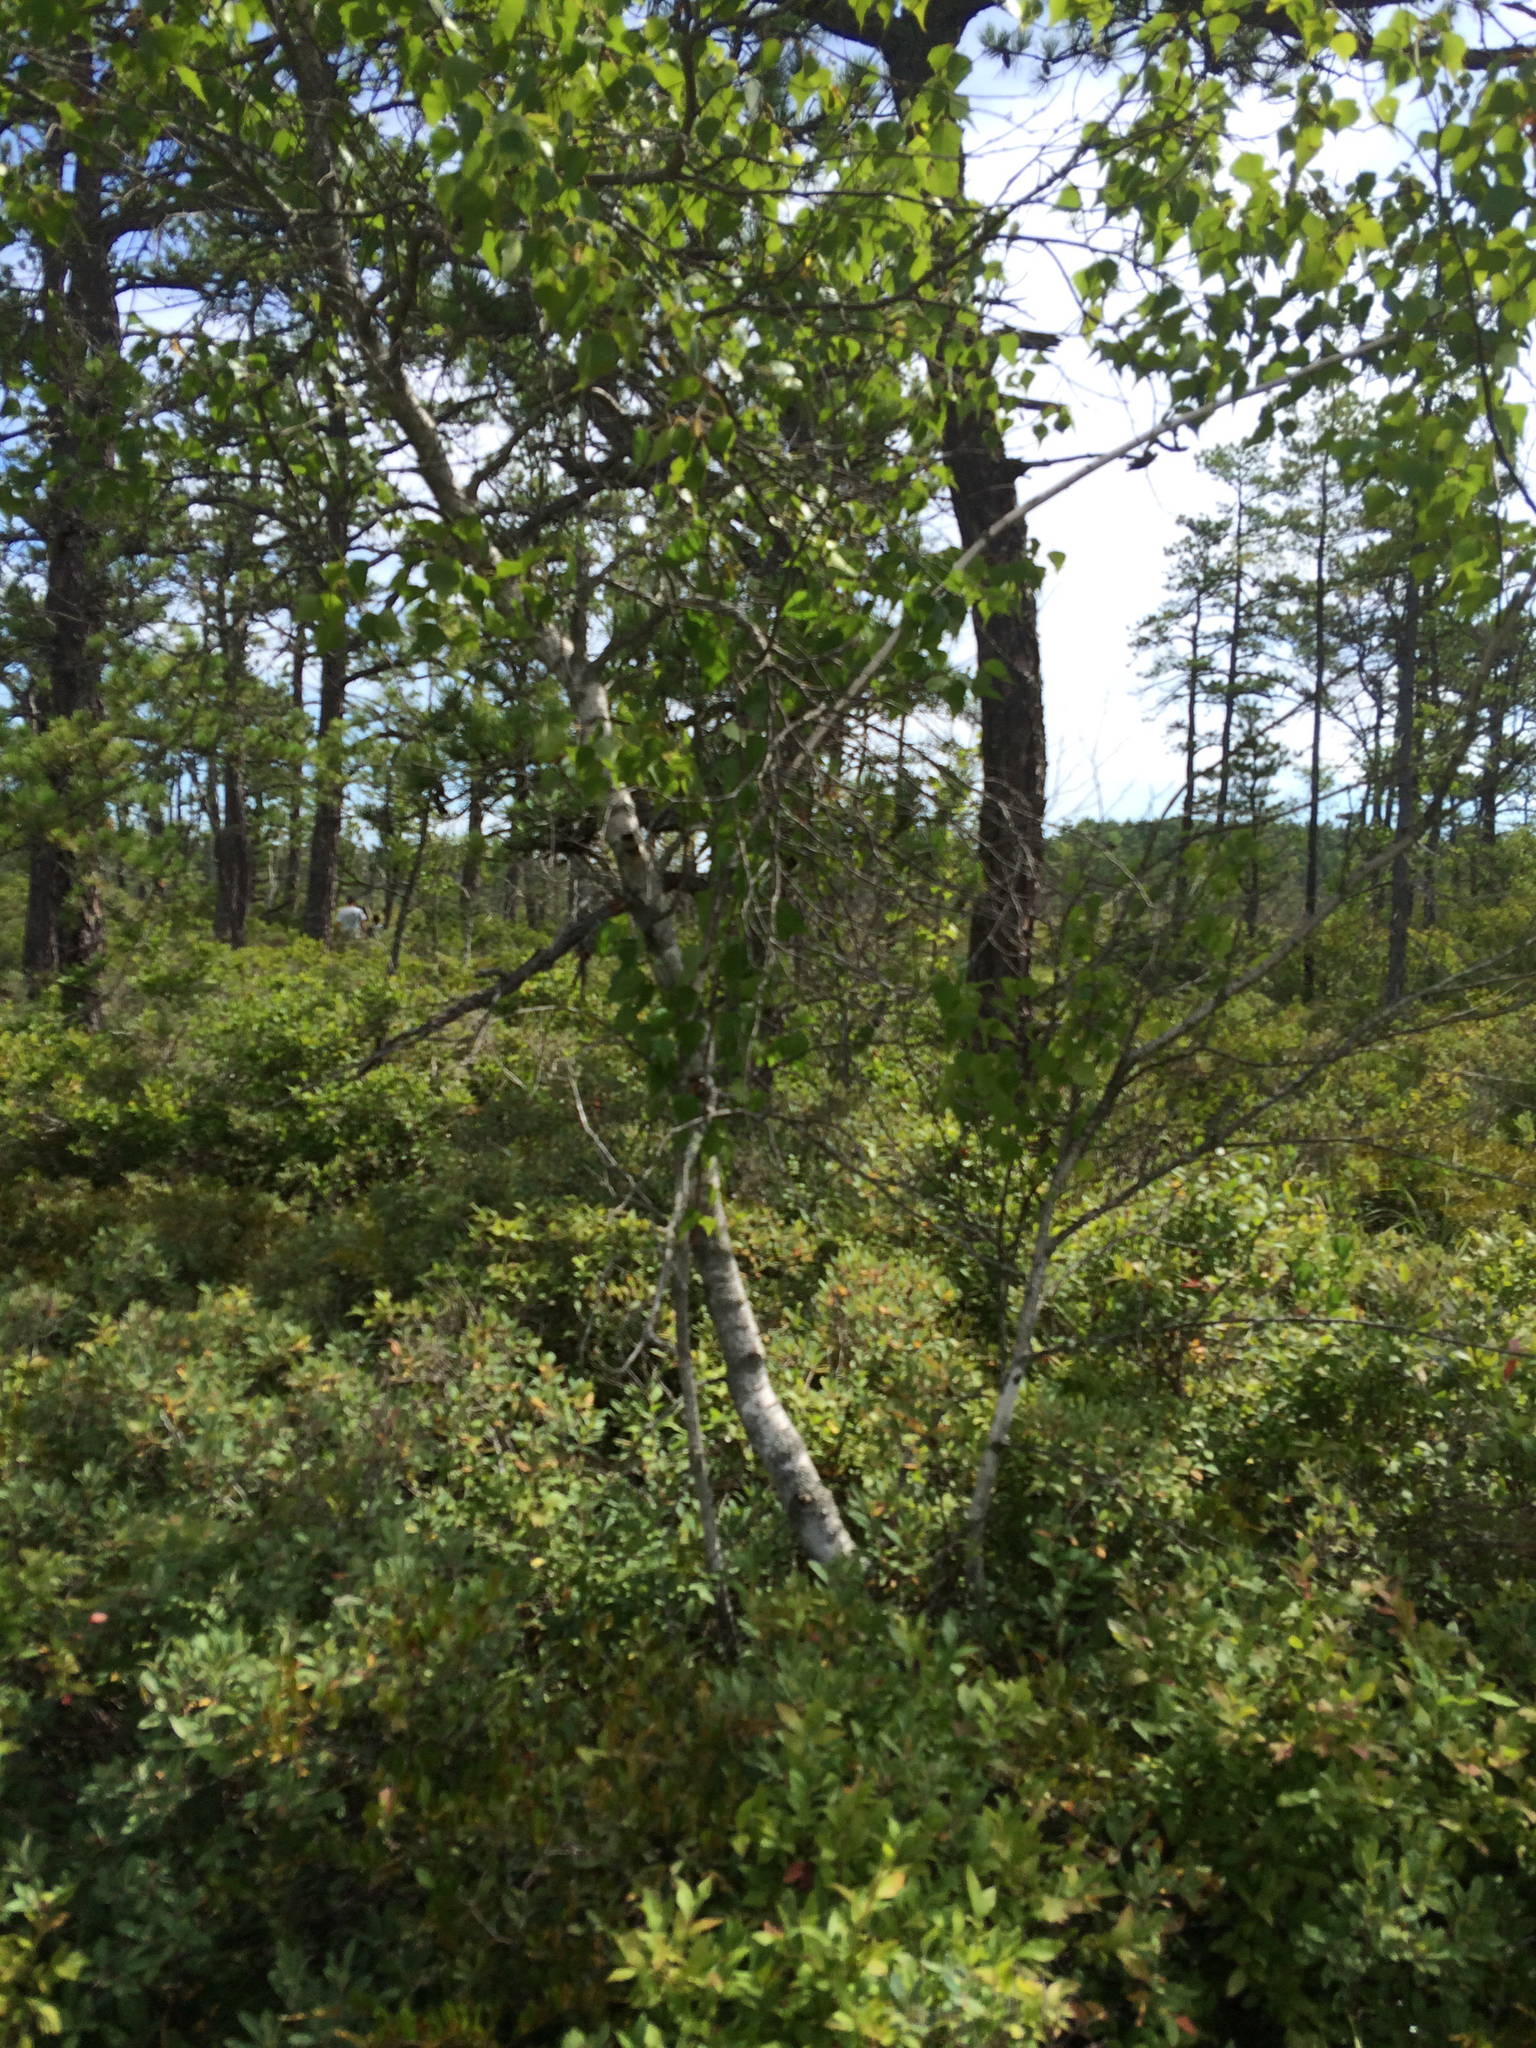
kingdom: Plantae
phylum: Tracheophyta
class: Magnoliopsida
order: Fagales
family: Betulaceae
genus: Betula
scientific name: Betula populifolia
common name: Fire birch
